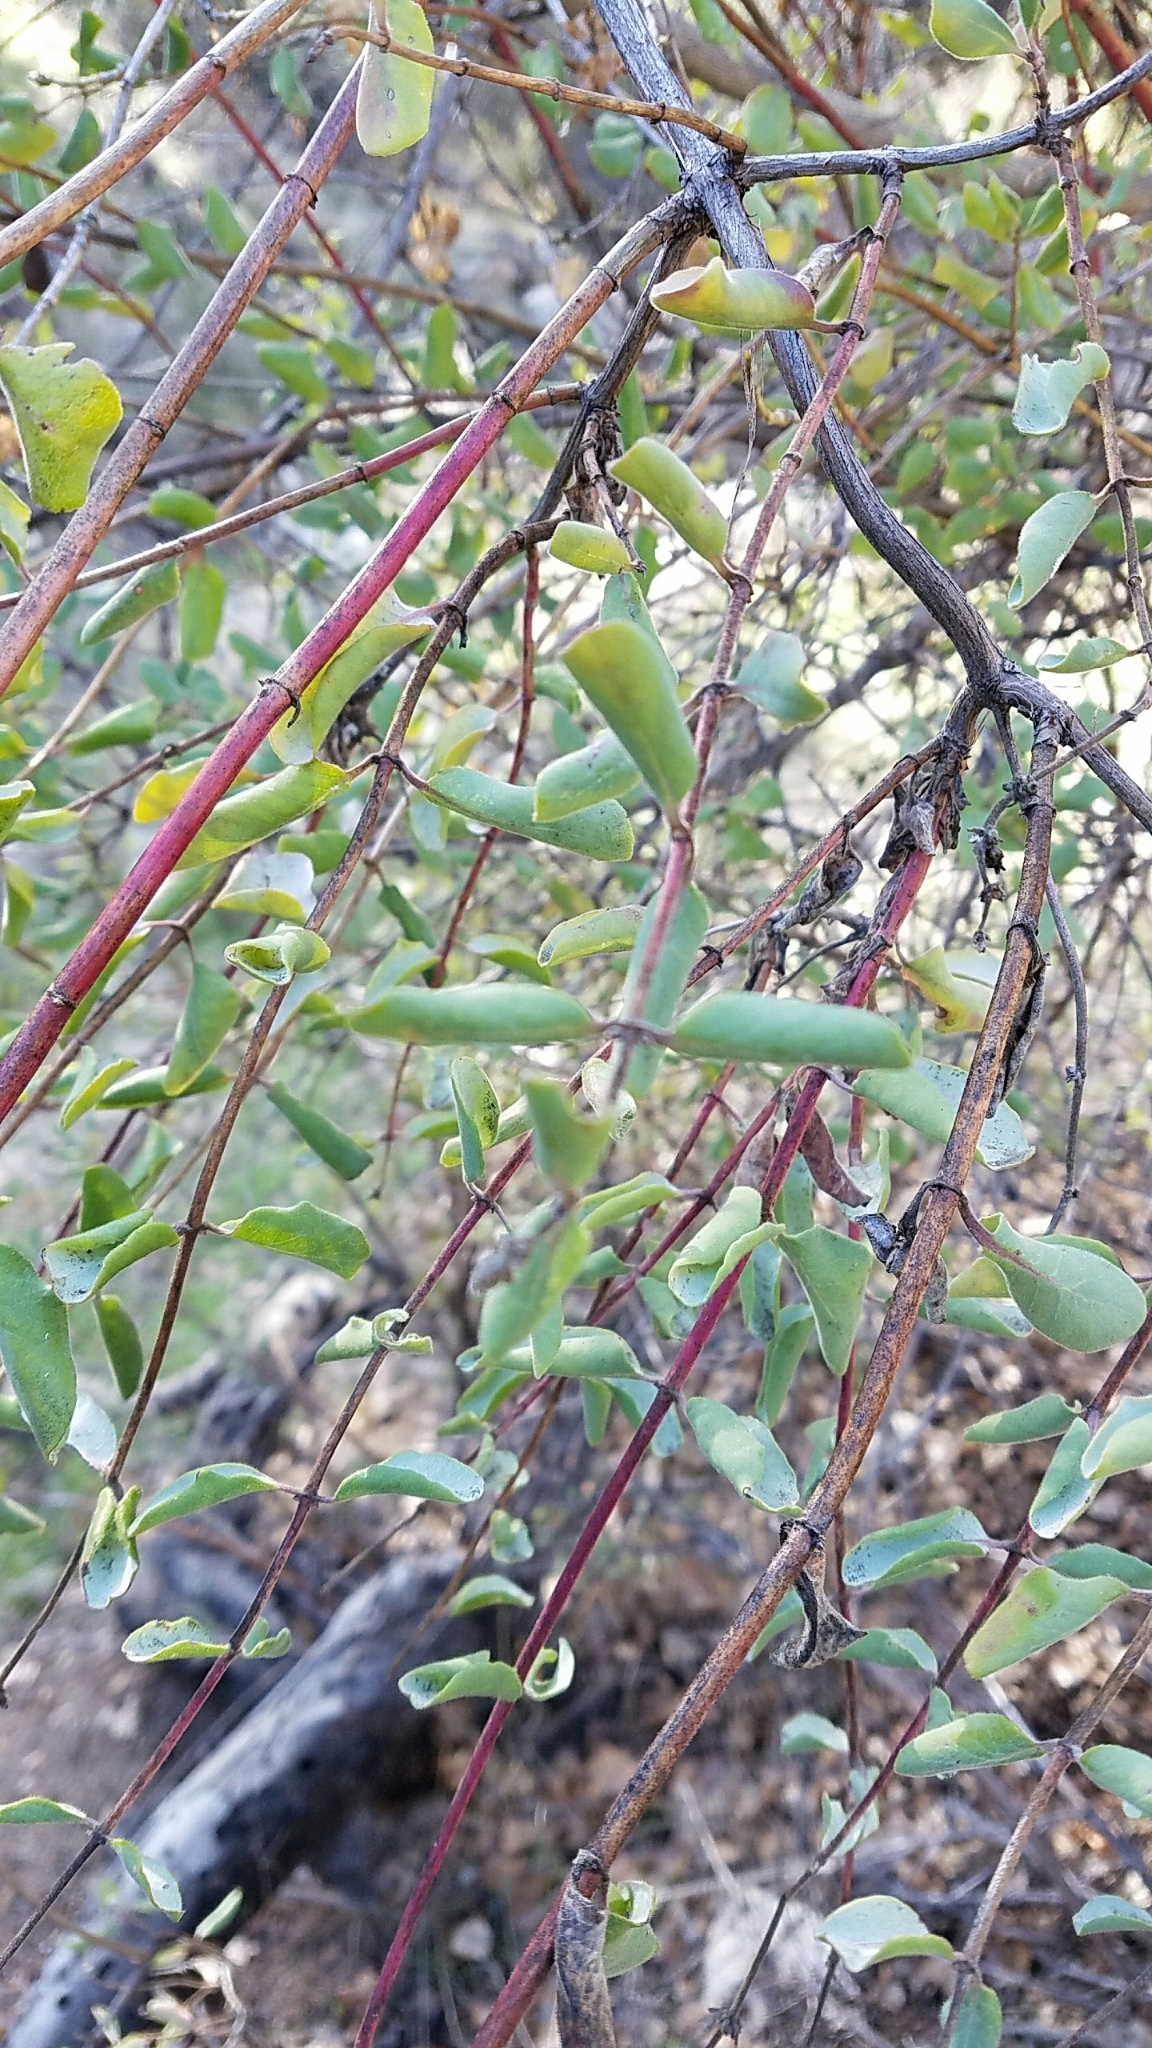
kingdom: Plantae
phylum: Tracheophyta
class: Magnoliopsida
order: Dipsacales
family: Caprifoliaceae
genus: Lonicera
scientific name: Lonicera subspicata
